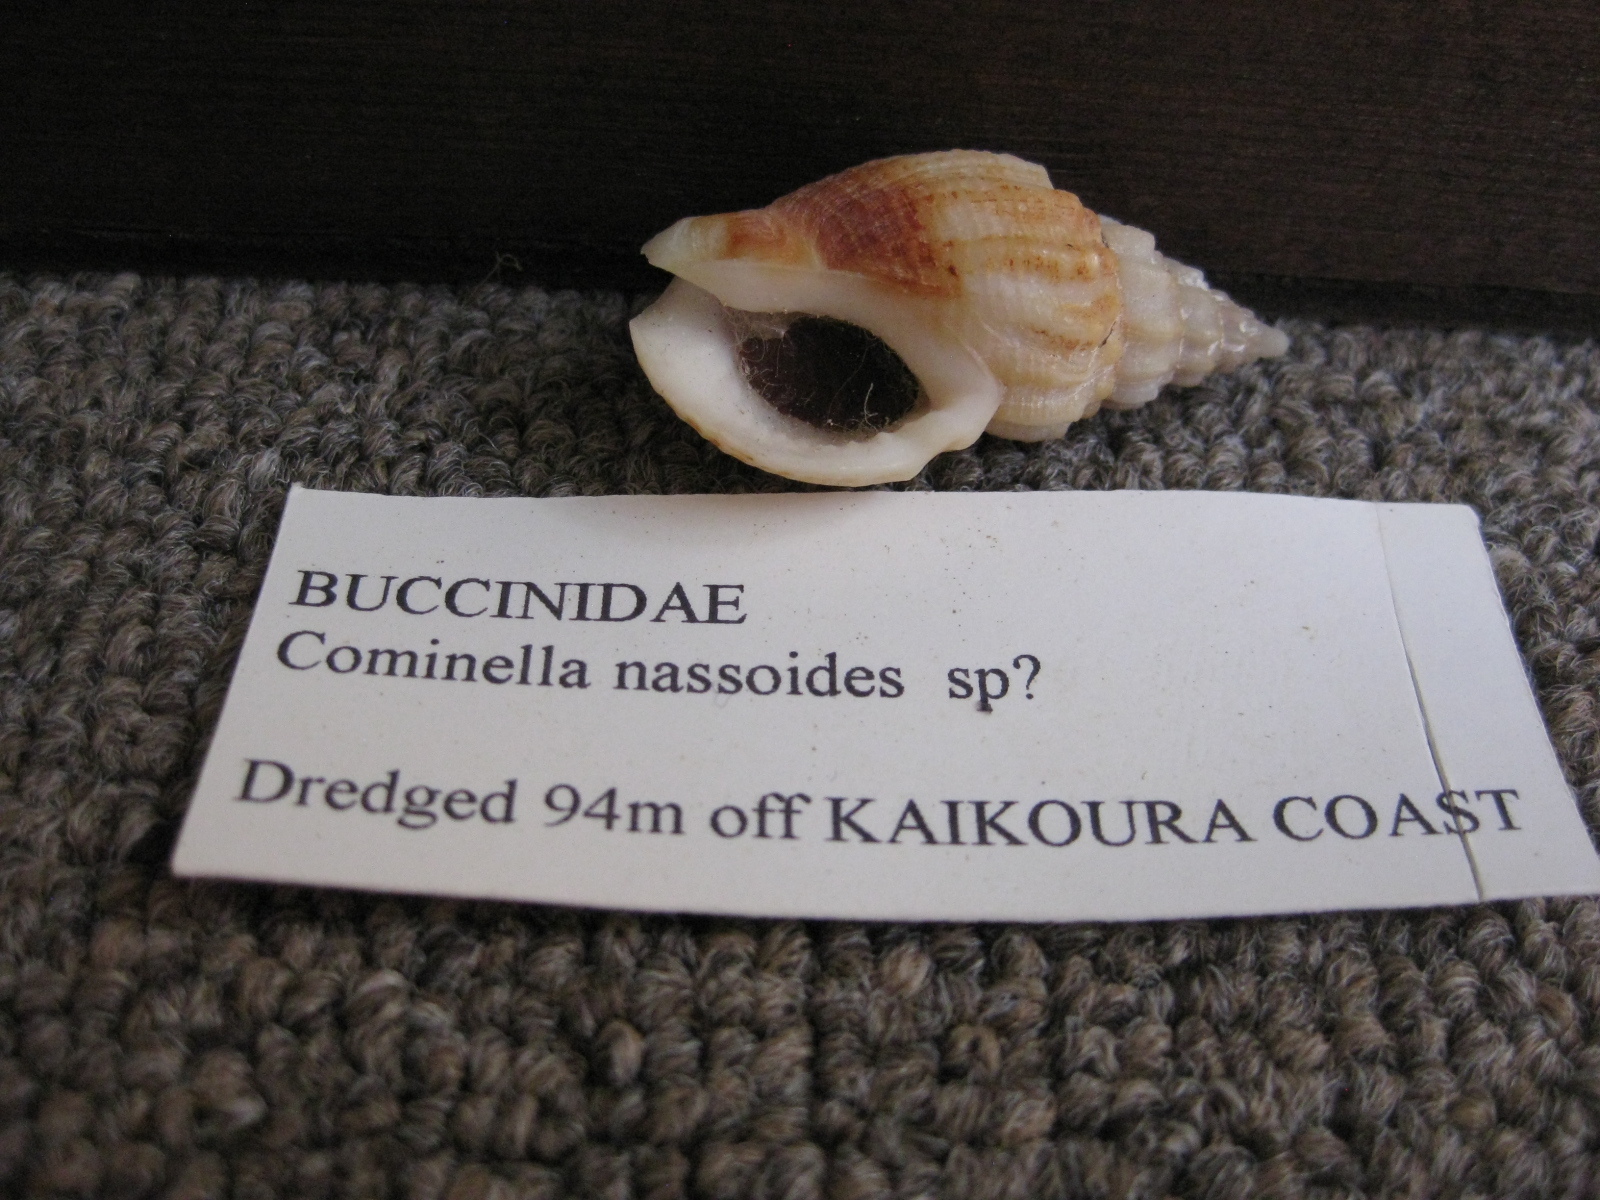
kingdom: Animalia
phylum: Mollusca
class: Gastropoda
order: Neogastropoda
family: Cominellidae
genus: Cominella
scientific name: Cominella nassoides
